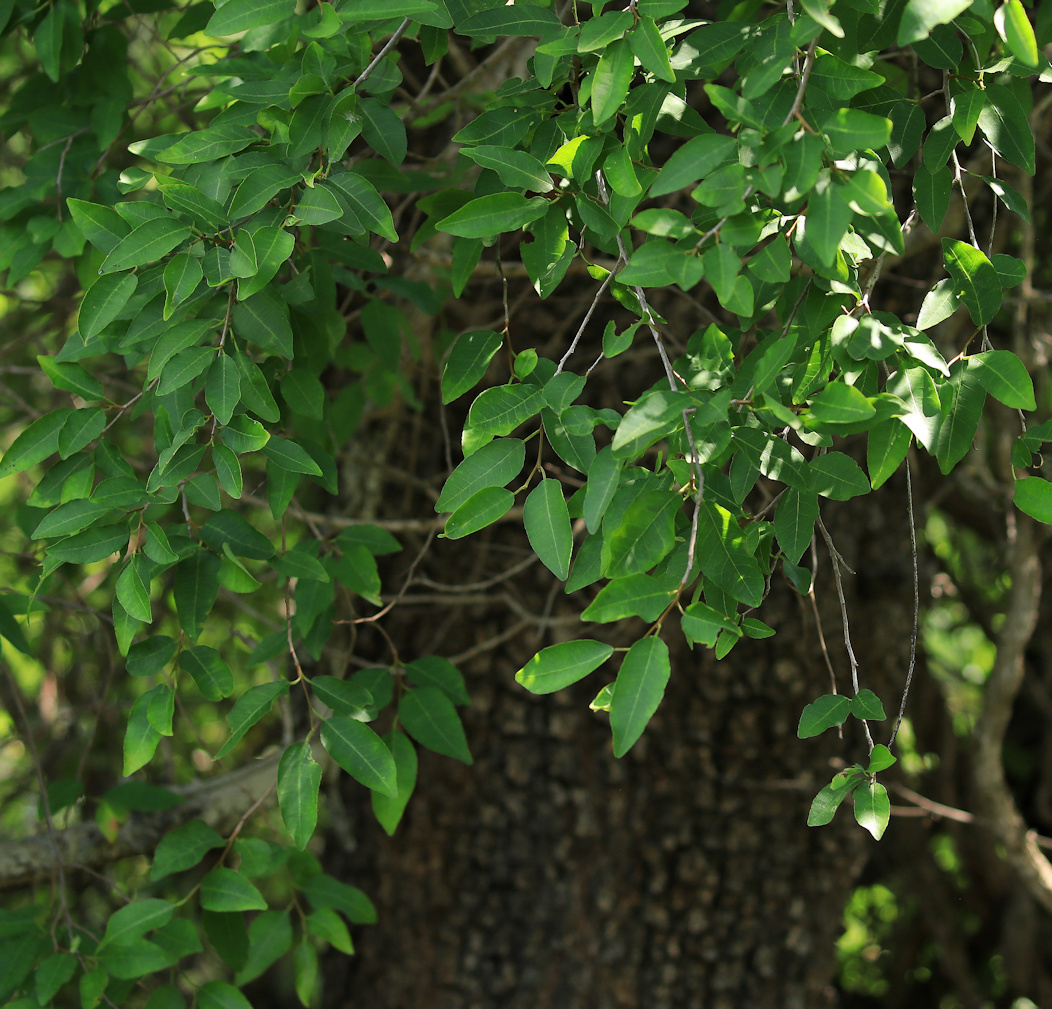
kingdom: Plantae
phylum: Tracheophyta
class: Magnoliopsida
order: Malpighiales
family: Euphorbiaceae
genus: Spirostachys
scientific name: Spirostachys africana
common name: Tamboti
